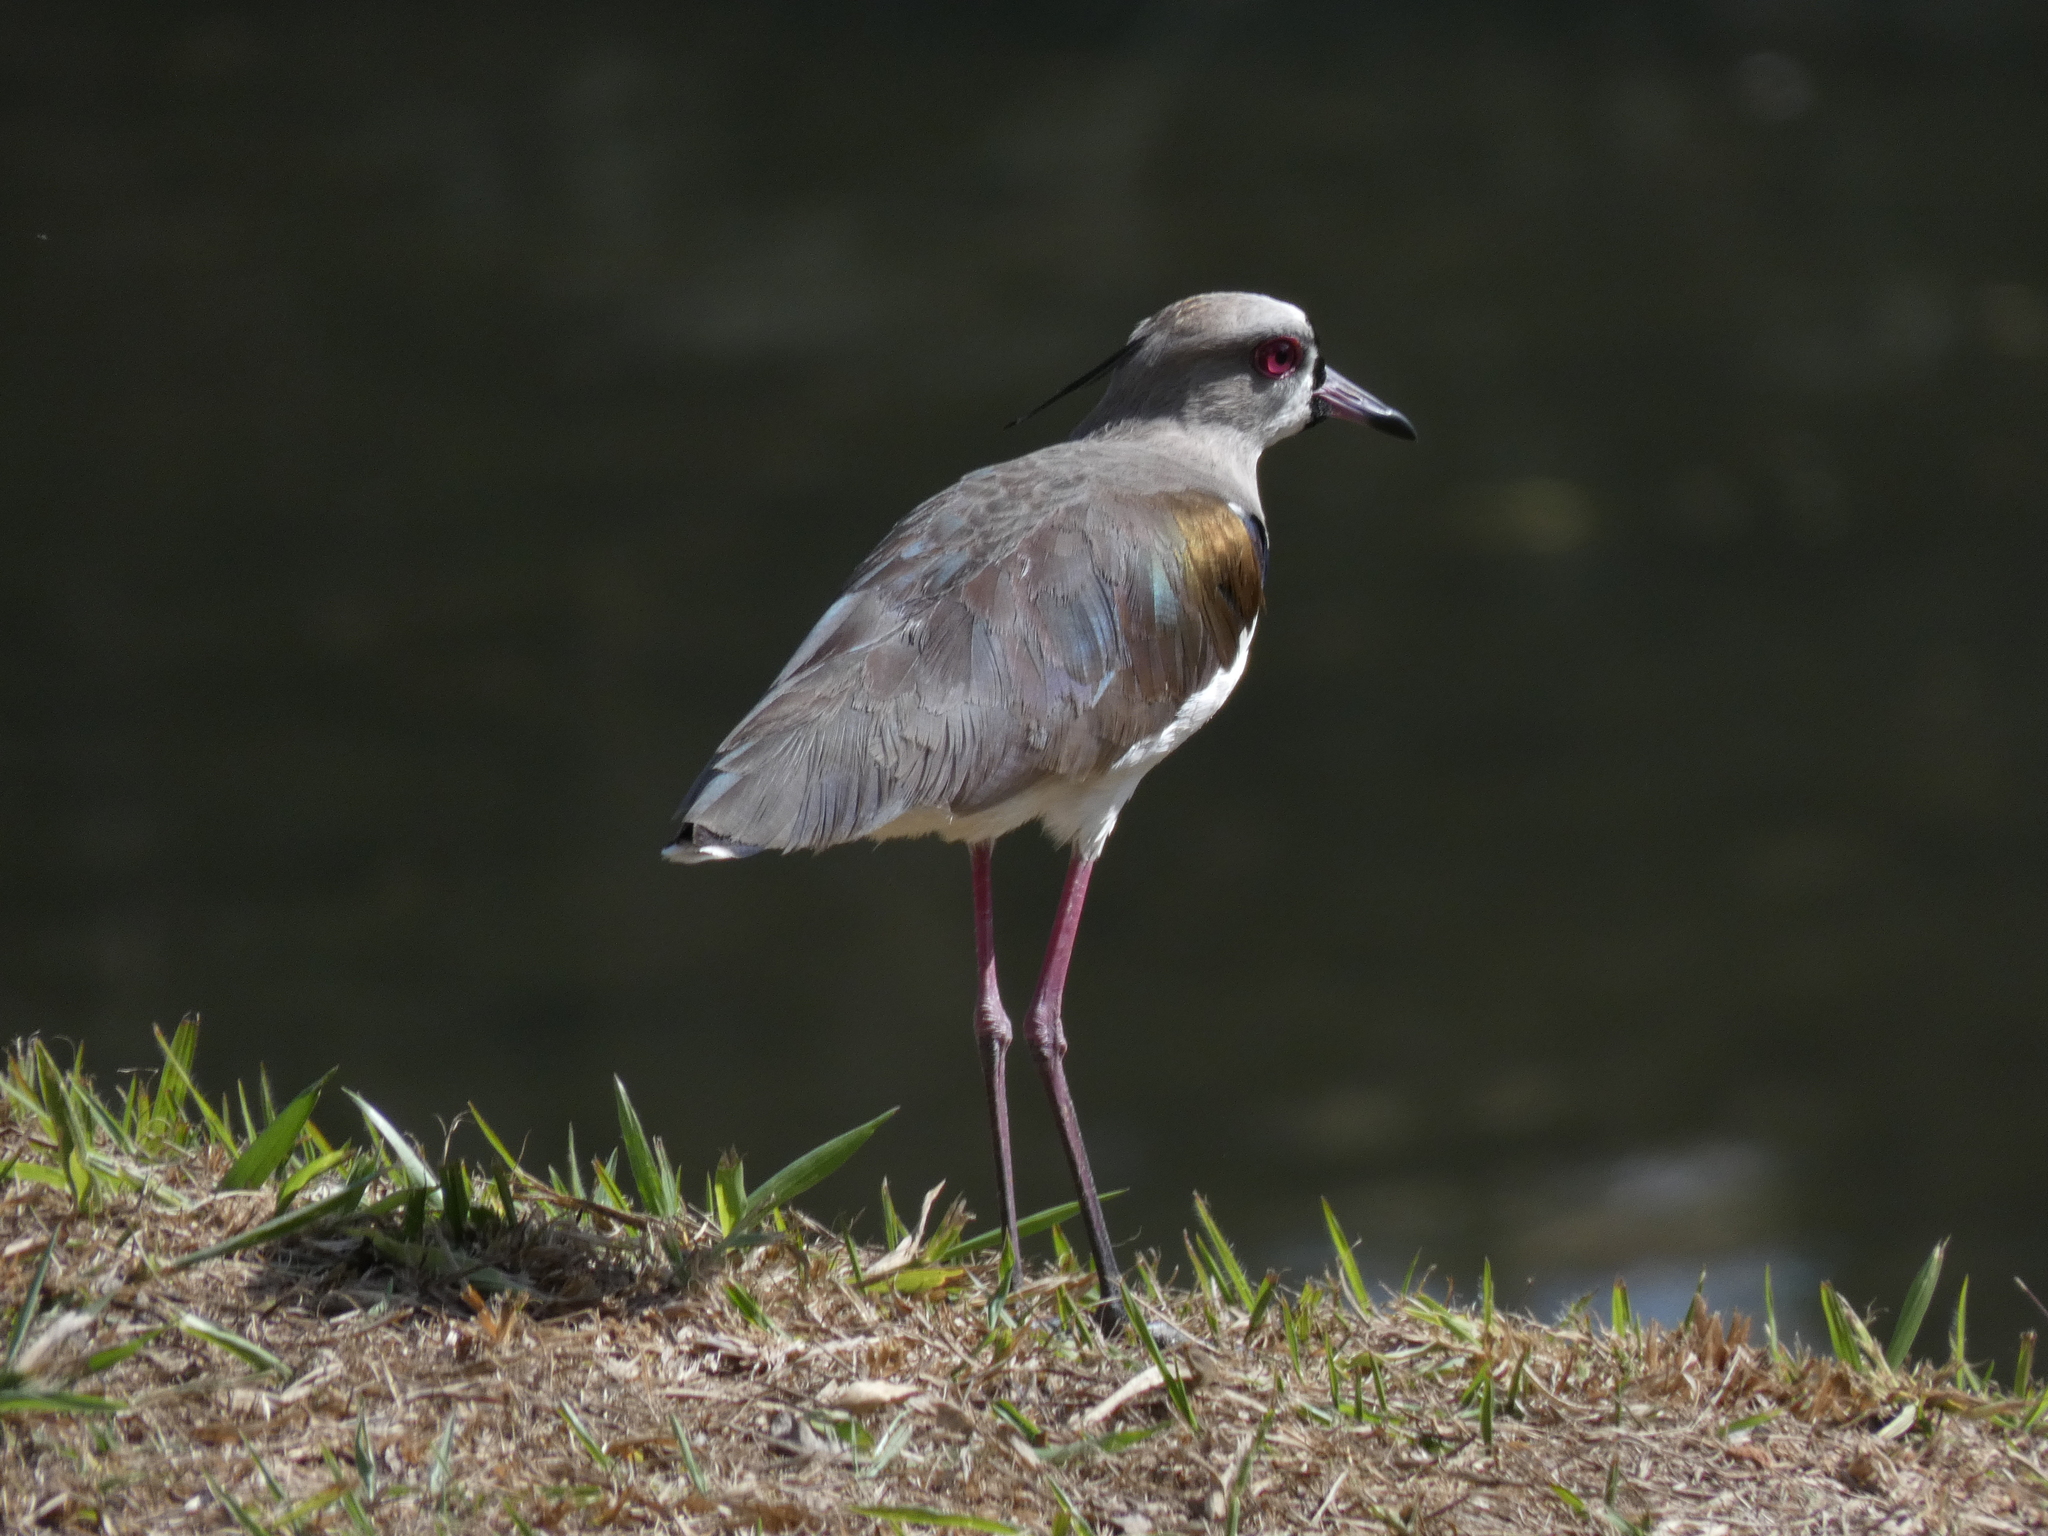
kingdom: Animalia
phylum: Chordata
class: Aves
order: Charadriiformes
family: Charadriidae
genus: Vanellus
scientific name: Vanellus chilensis
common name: Southern lapwing
